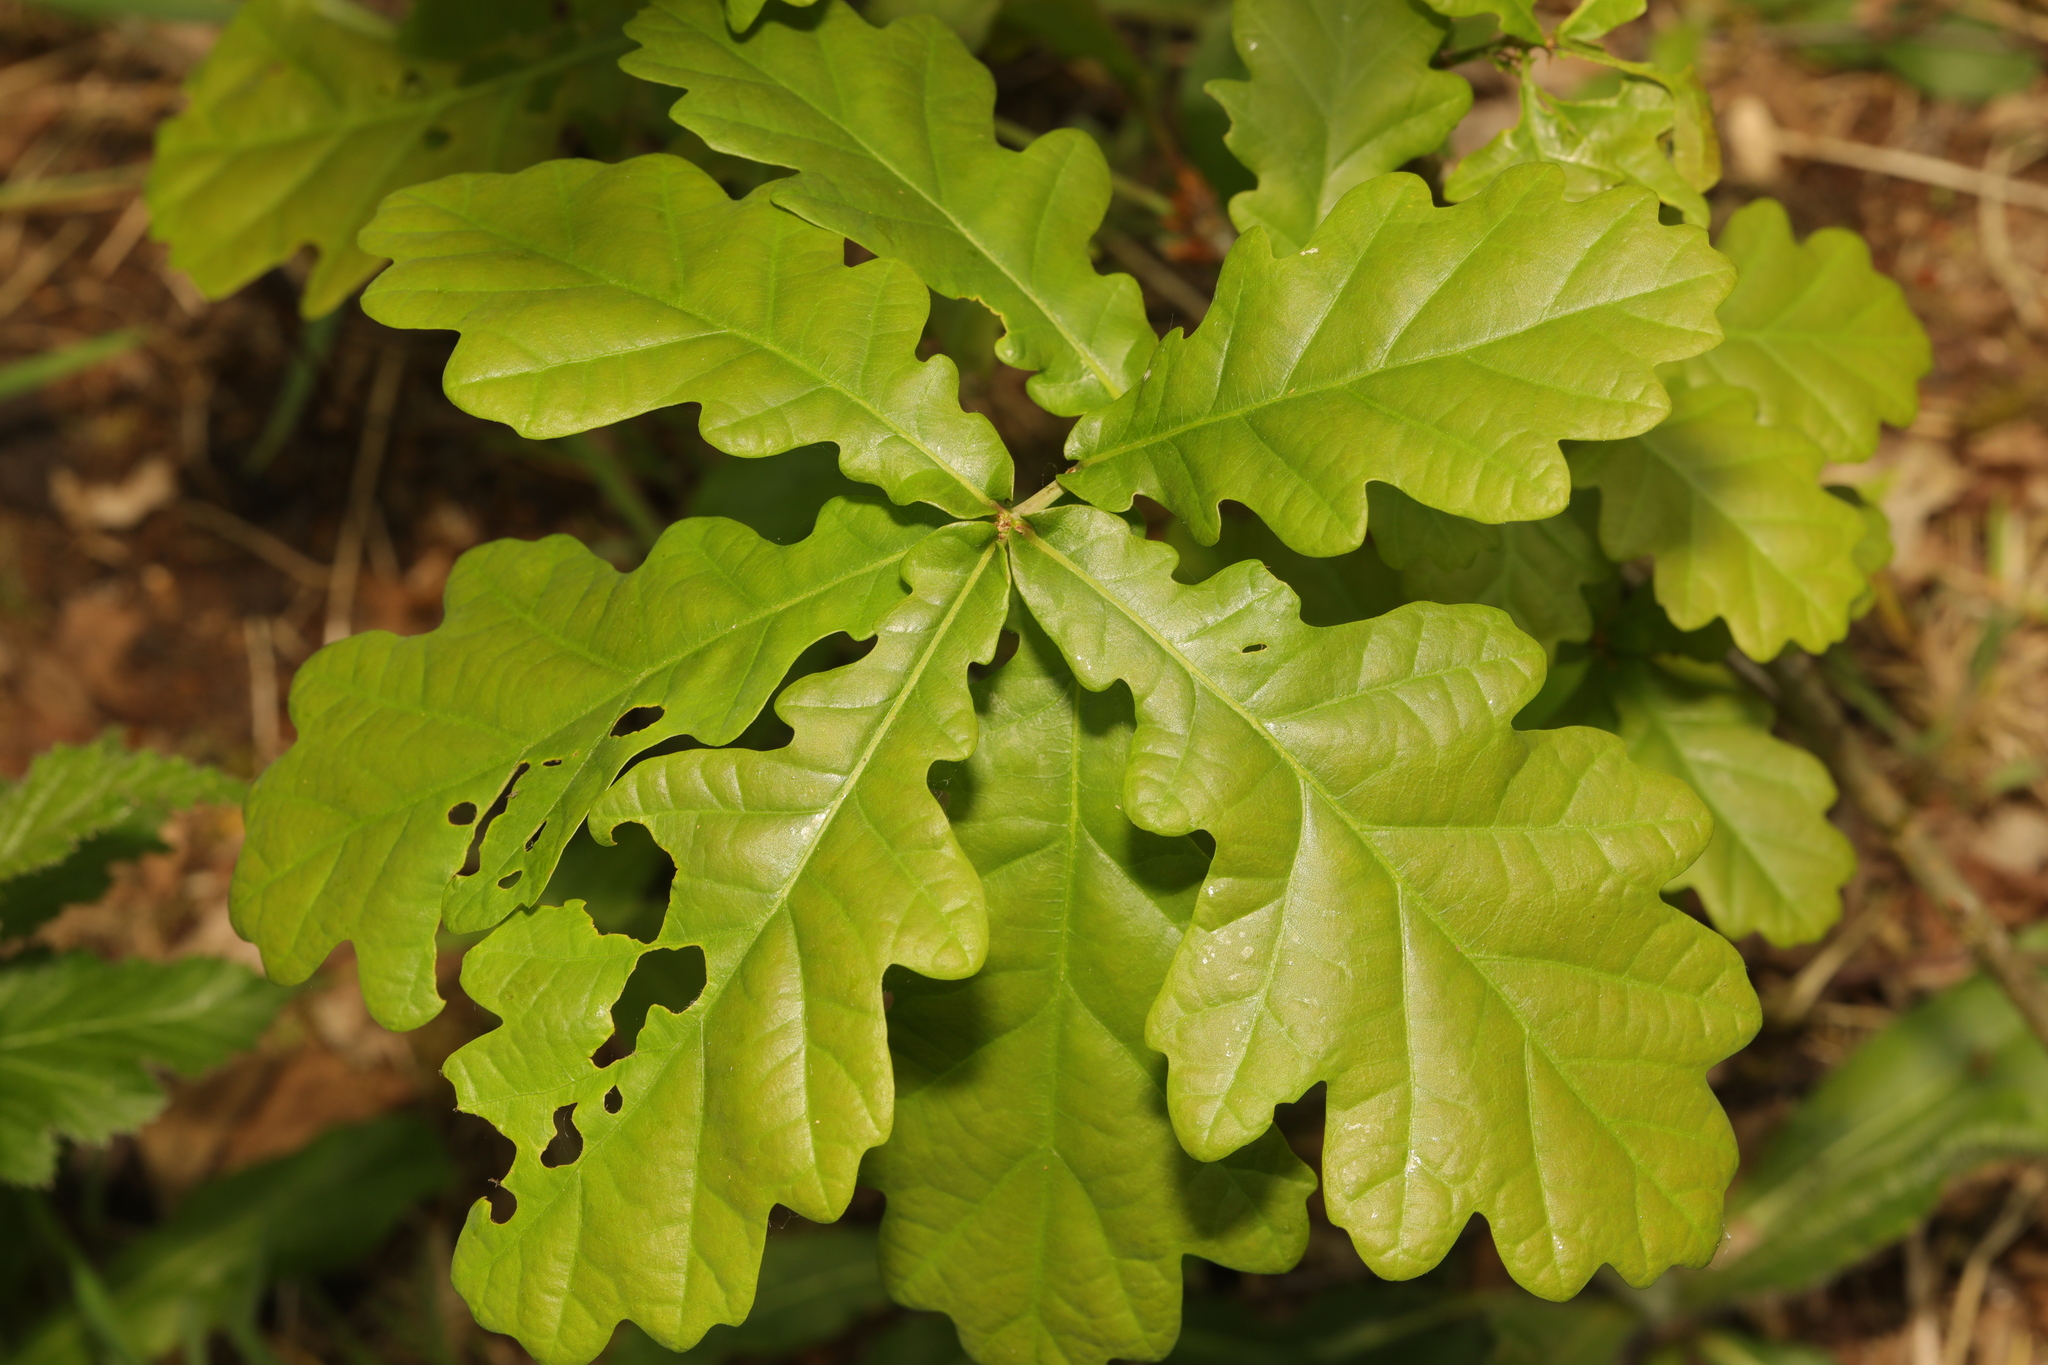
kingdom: Plantae
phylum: Tracheophyta
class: Magnoliopsida
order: Fagales
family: Fagaceae
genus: Quercus
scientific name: Quercus robur
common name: Pedunculate oak
